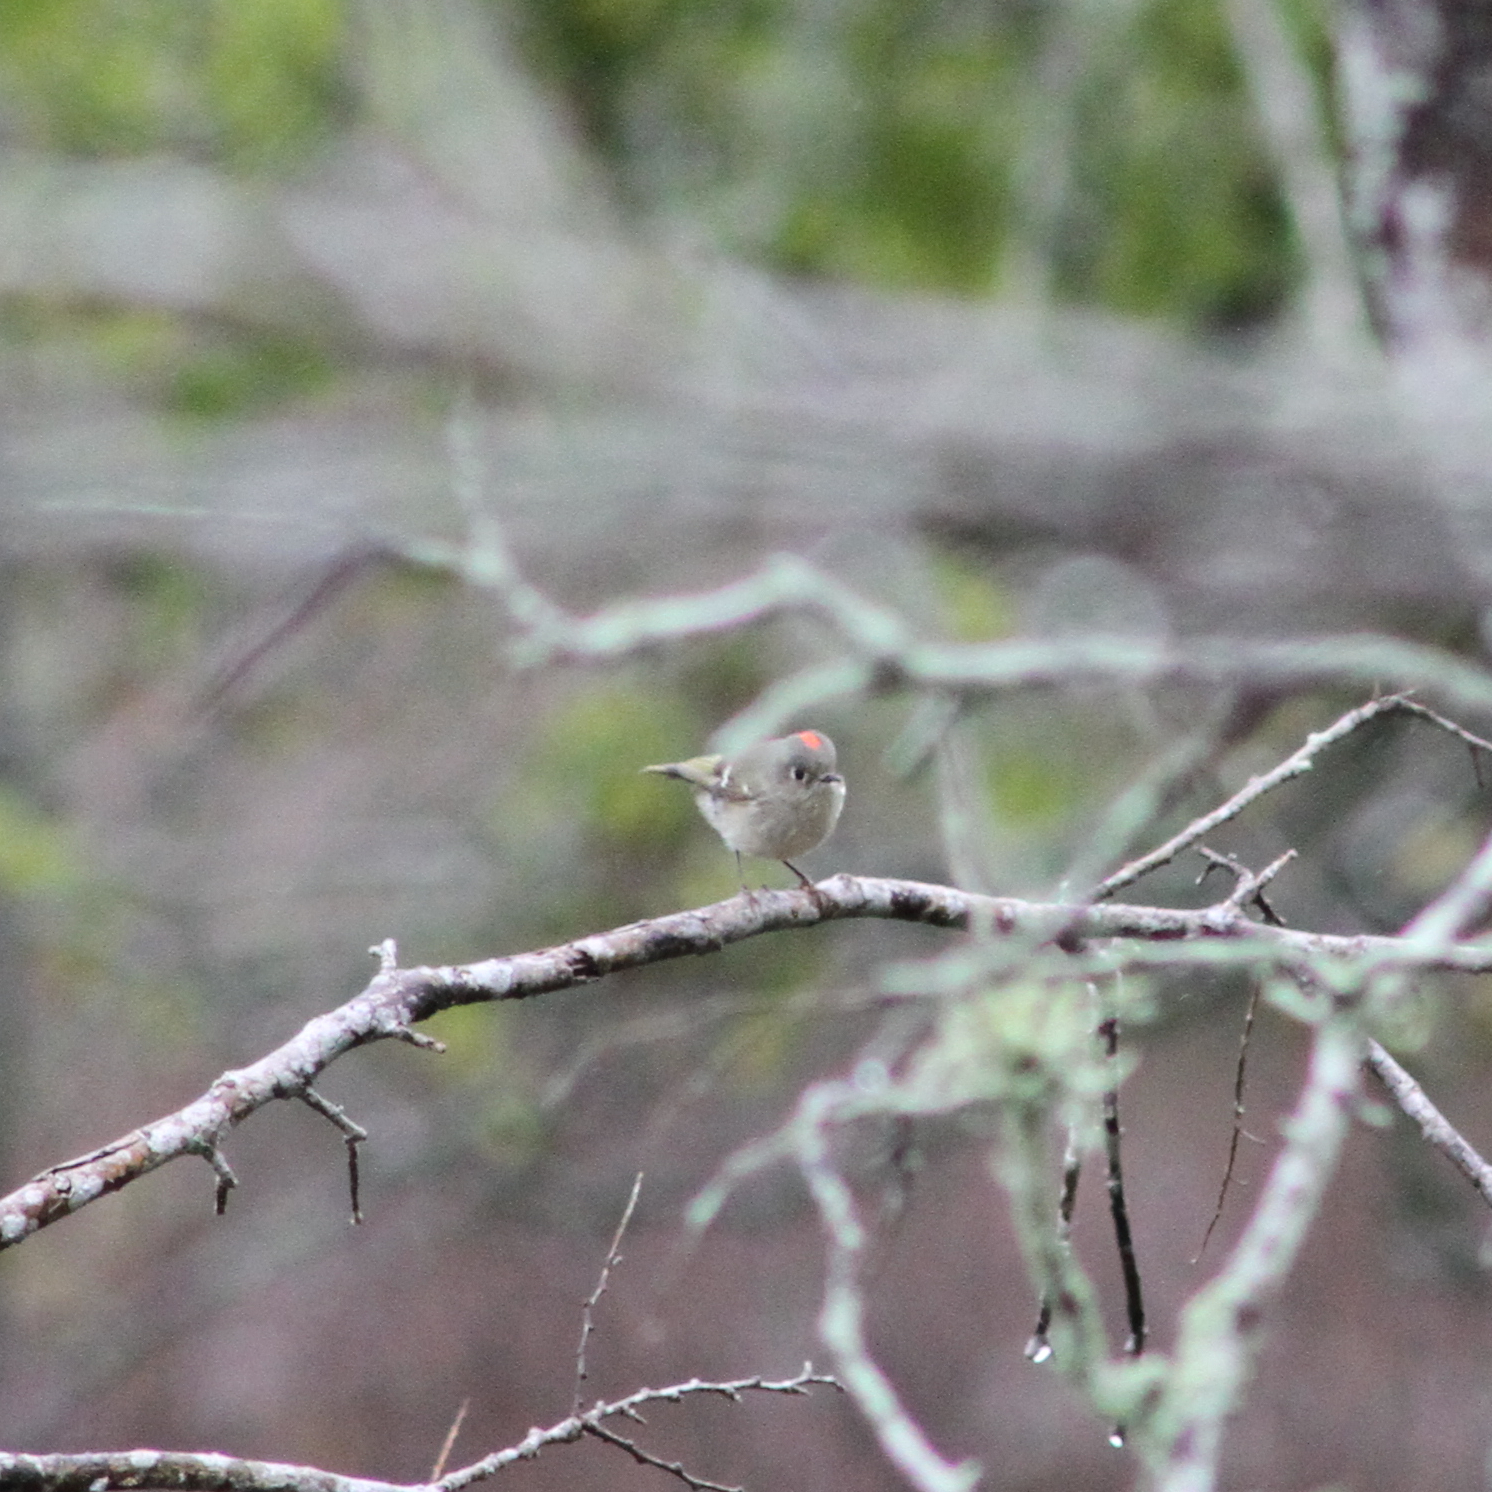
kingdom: Animalia
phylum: Chordata
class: Aves
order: Passeriformes
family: Regulidae
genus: Regulus
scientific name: Regulus calendula
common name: Ruby-crowned kinglet
